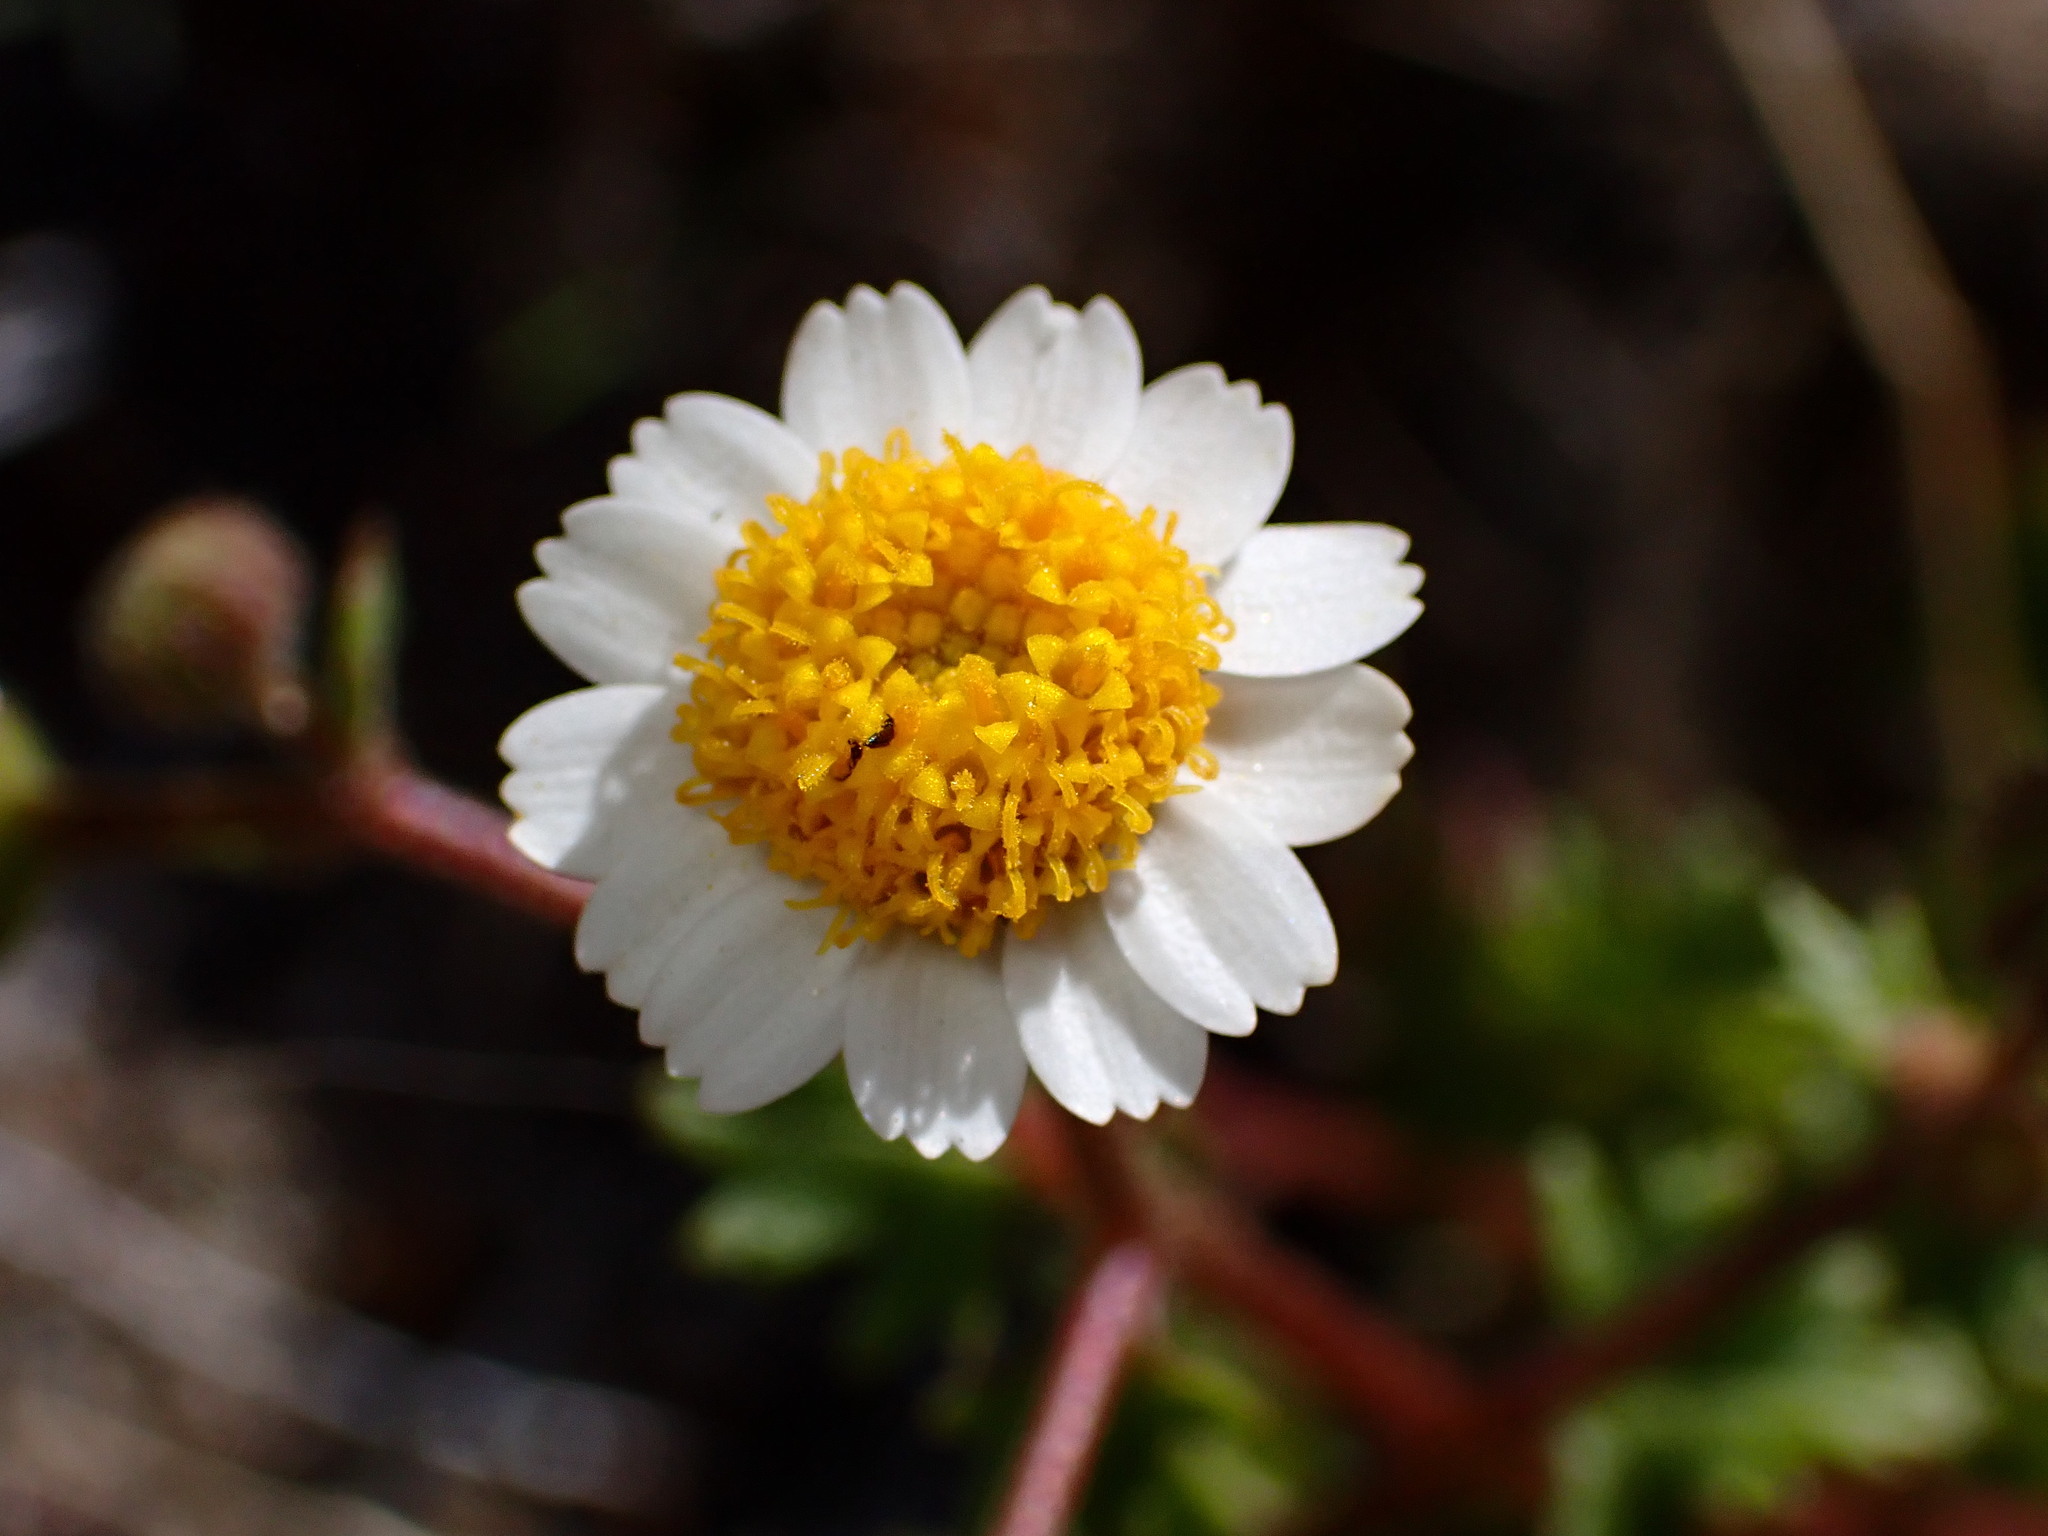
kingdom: Plantae
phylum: Tracheophyta
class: Magnoliopsida
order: Asterales
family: Asteraceae
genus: Laphamia
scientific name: Laphamia emoryi
